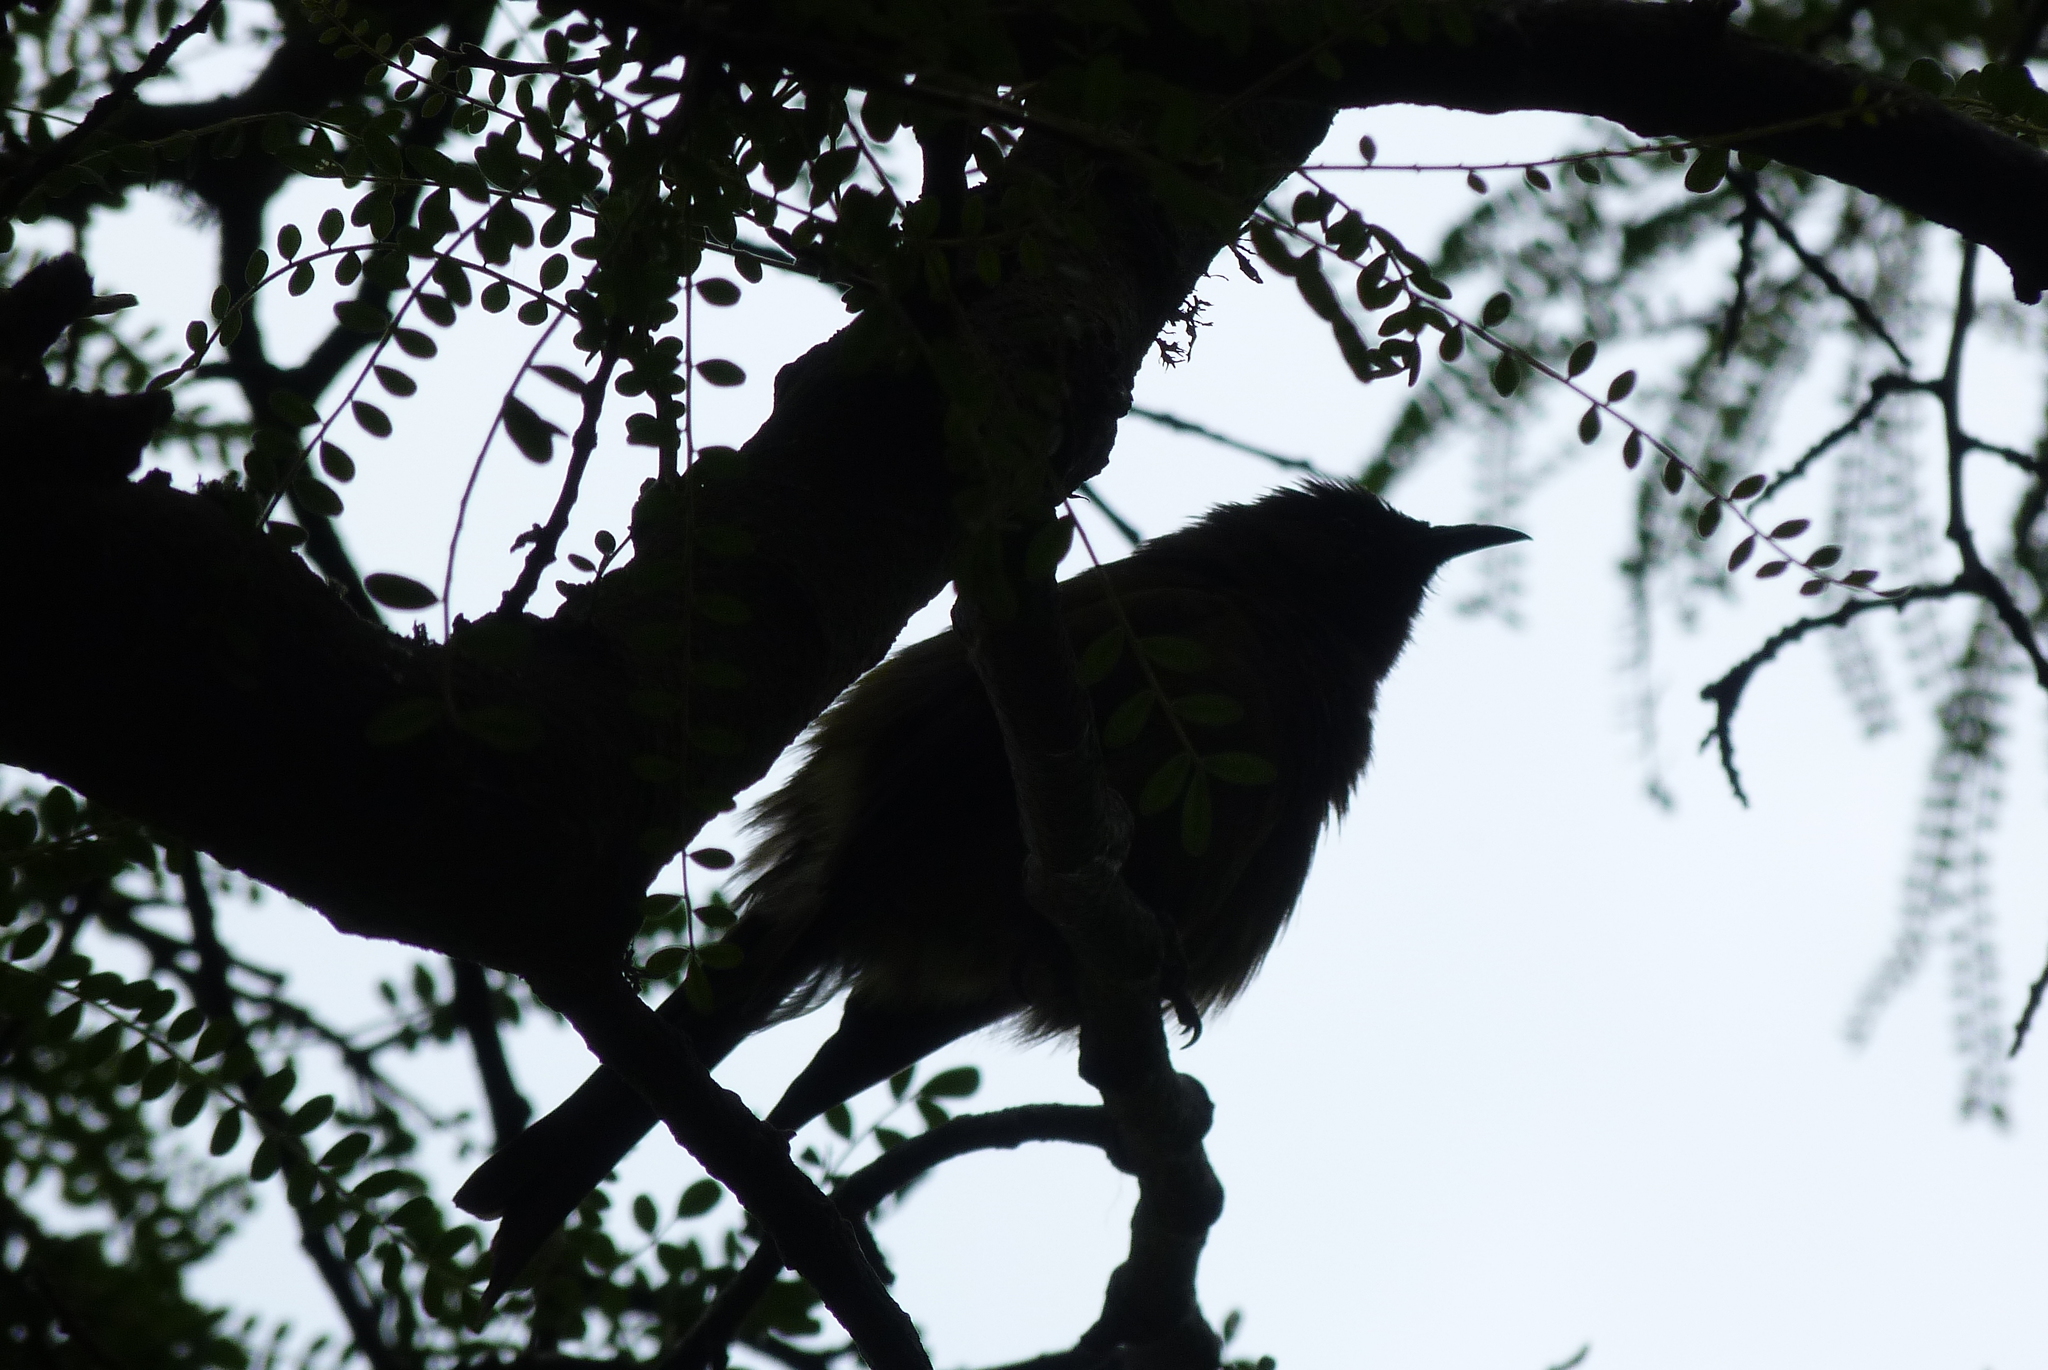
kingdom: Animalia
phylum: Chordata
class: Aves
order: Passeriformes
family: Meliphagidae
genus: Anthornis
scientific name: Anthornis melanura
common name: New zealand bellbird
